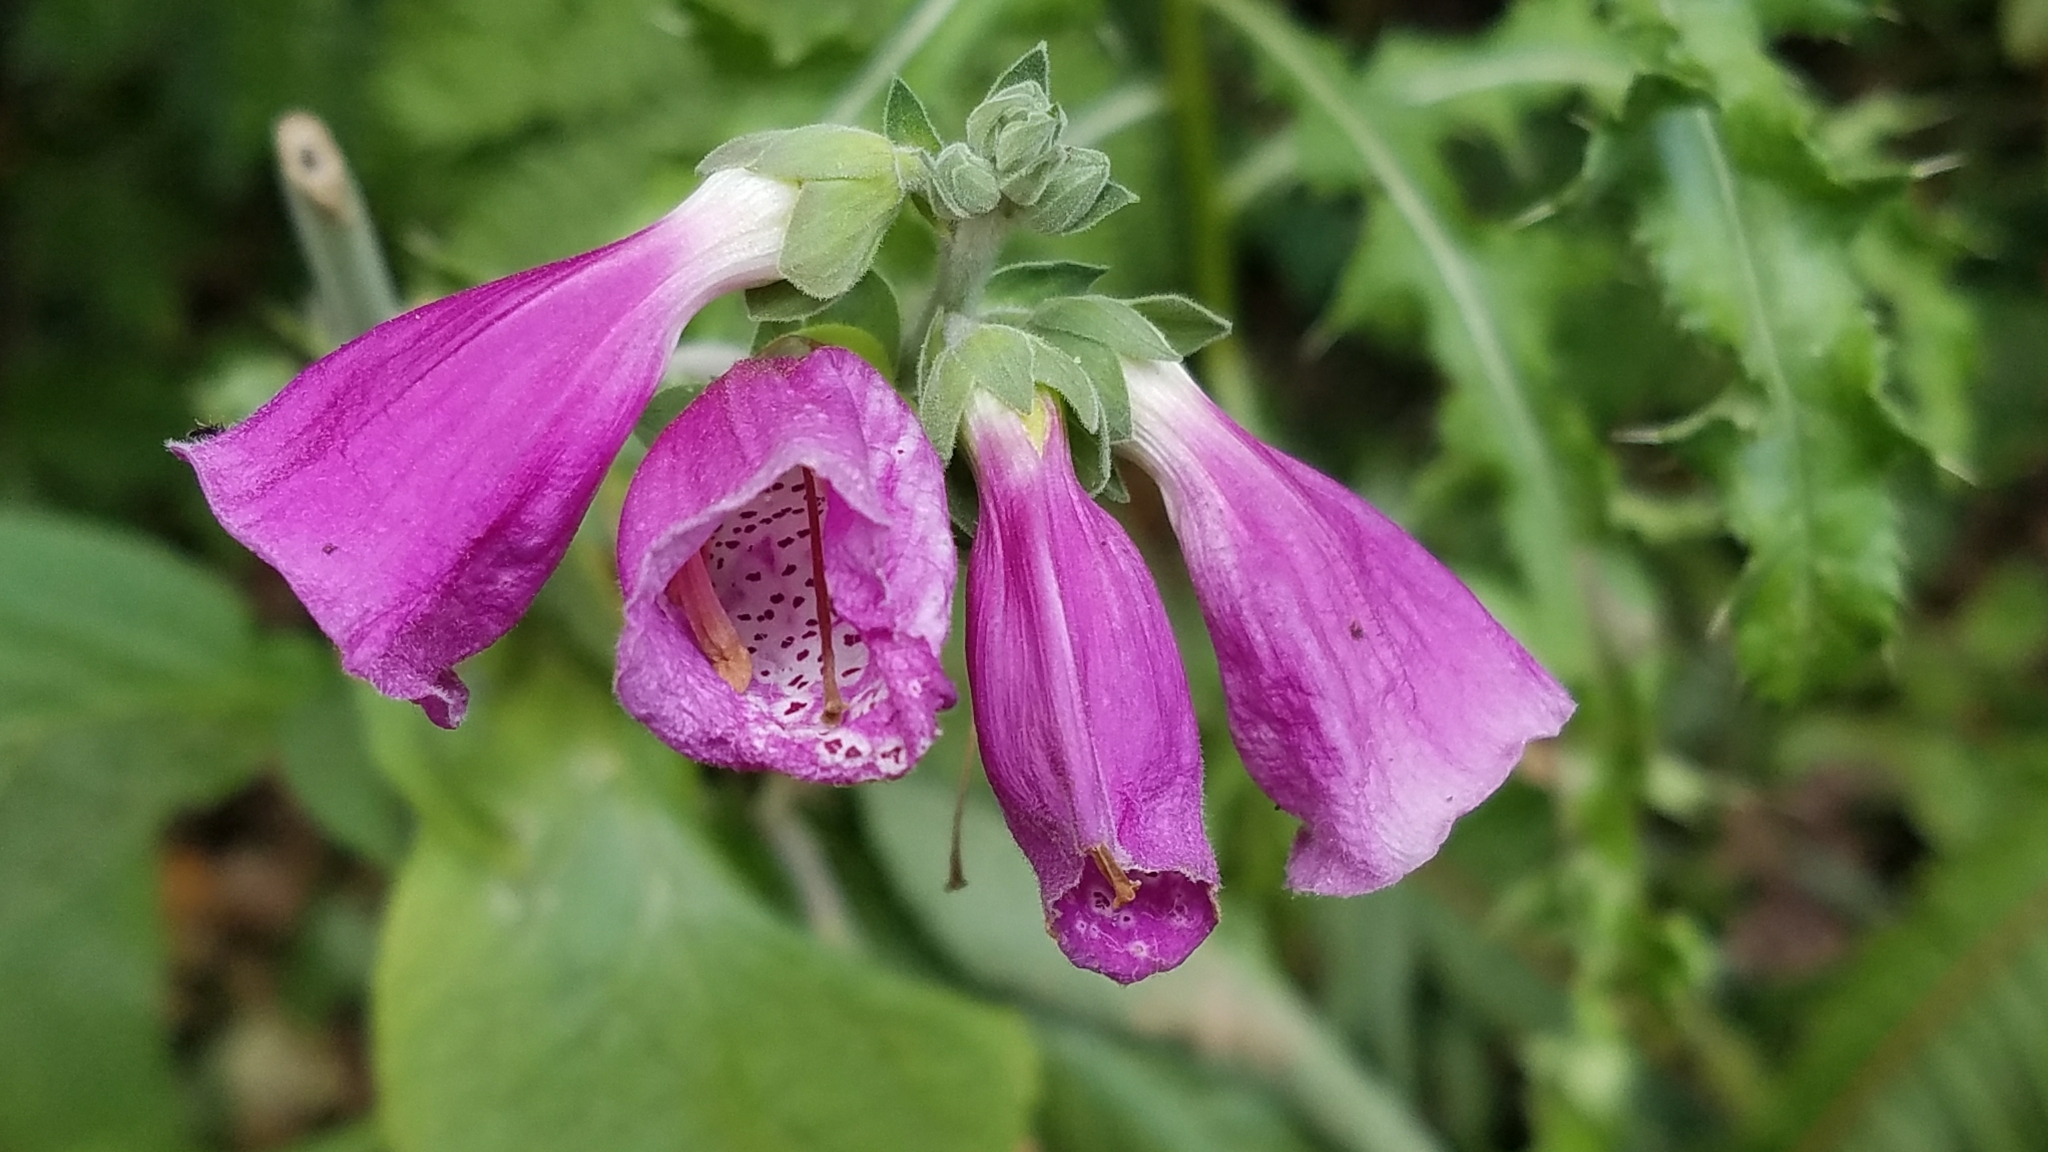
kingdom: Plantae
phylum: Tracheophyta
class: Magnoliopsida
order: Lamiales
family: Plantaginaceae
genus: Digitalis
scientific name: Digitalis purpurea
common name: Foxglove
